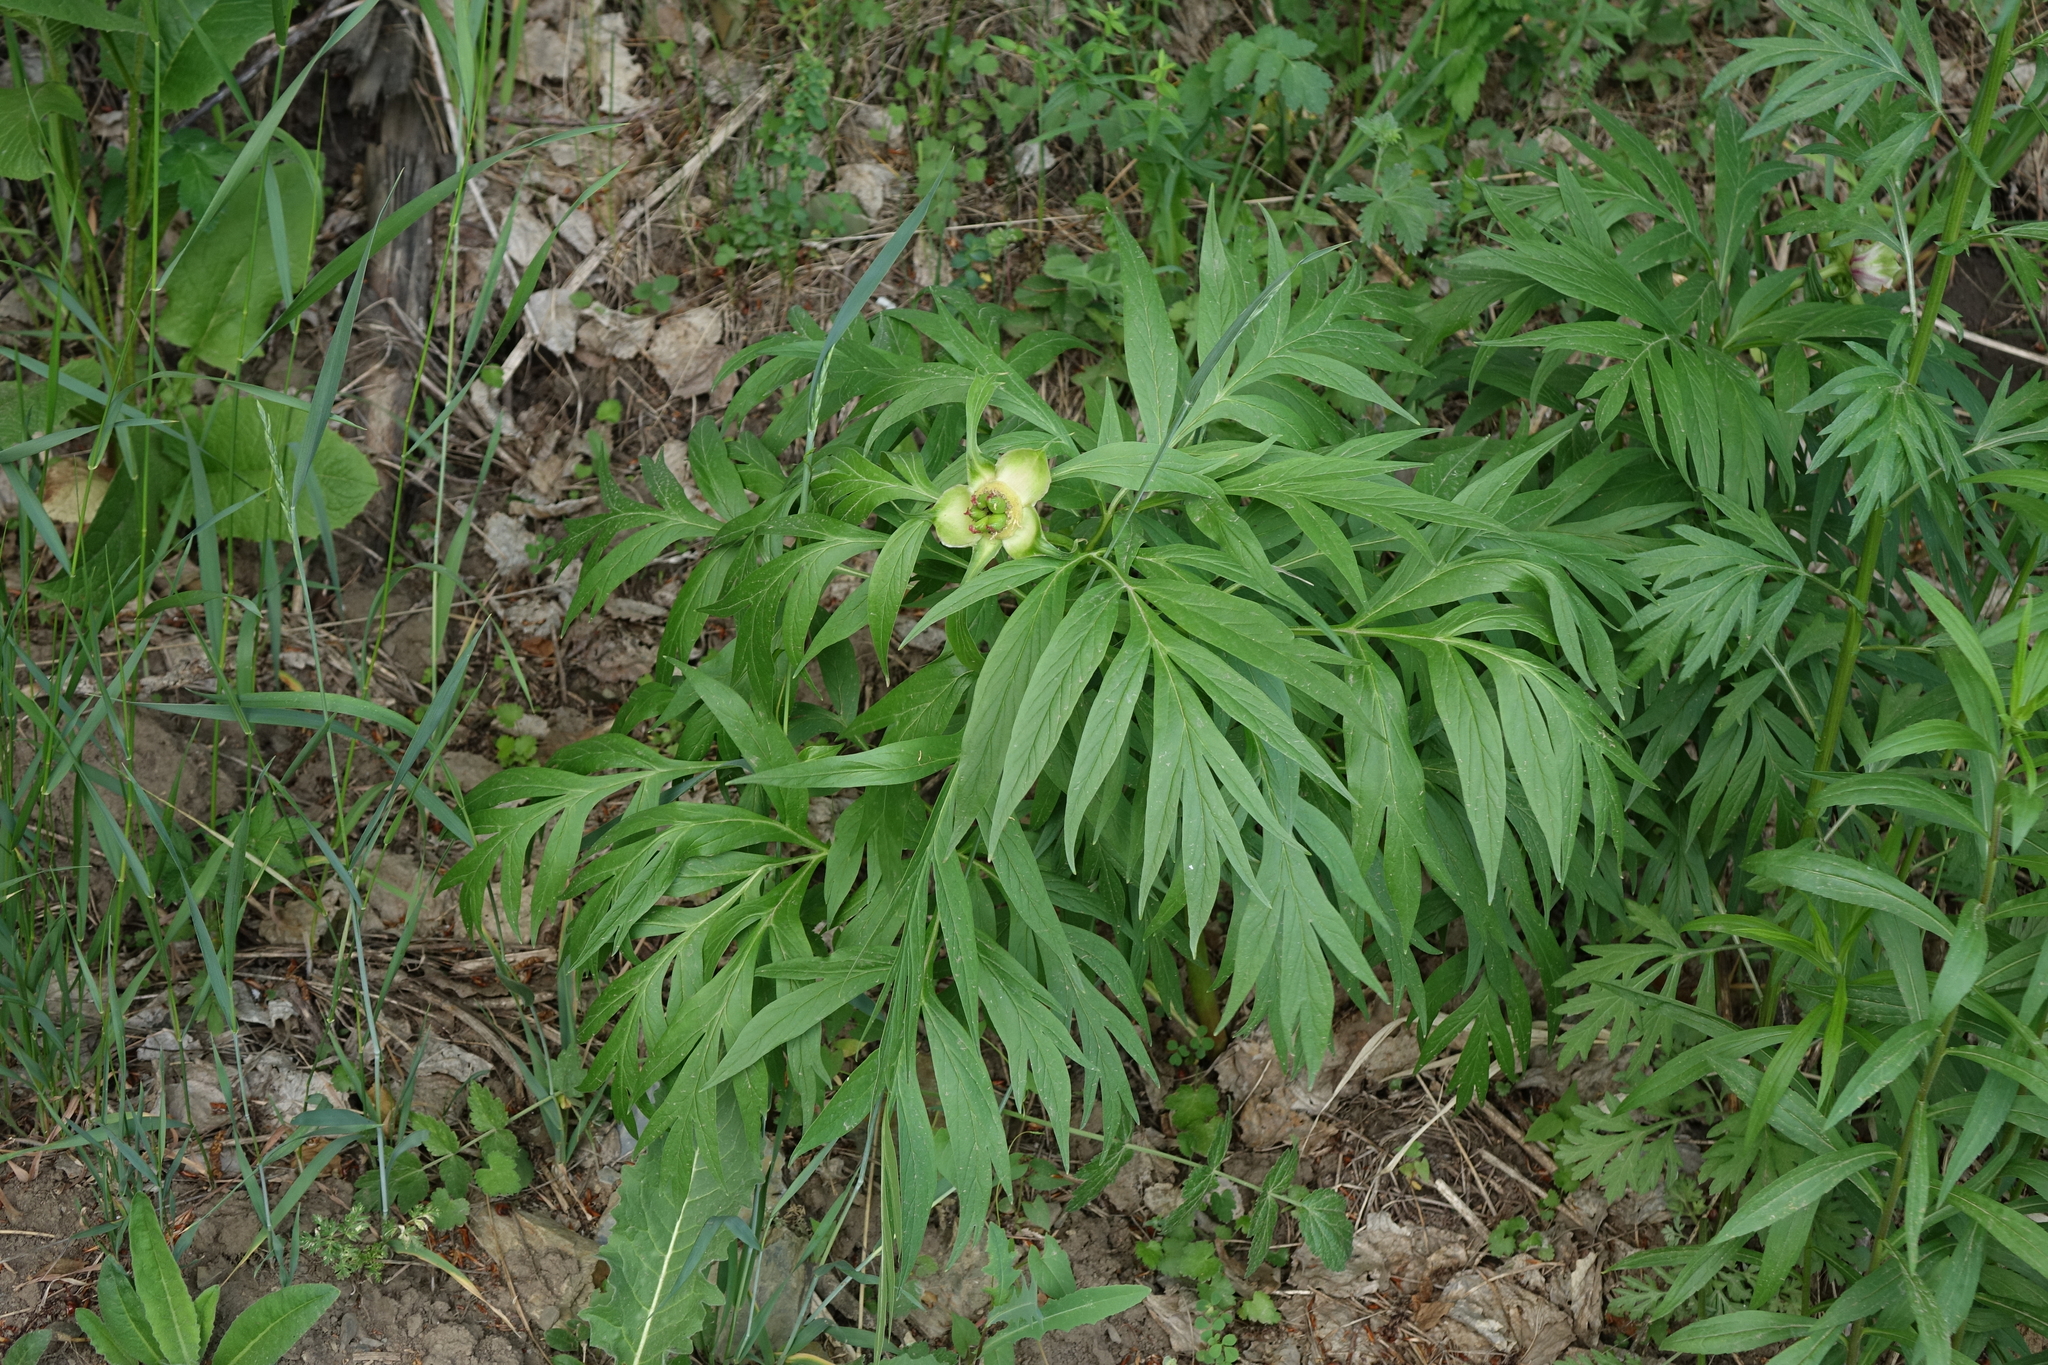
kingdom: Plantae
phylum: Tracheophyta
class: Magnoliopsida
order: Saxifragales
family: Paeoniaceae
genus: Paeonia
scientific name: Paeonia anomala
